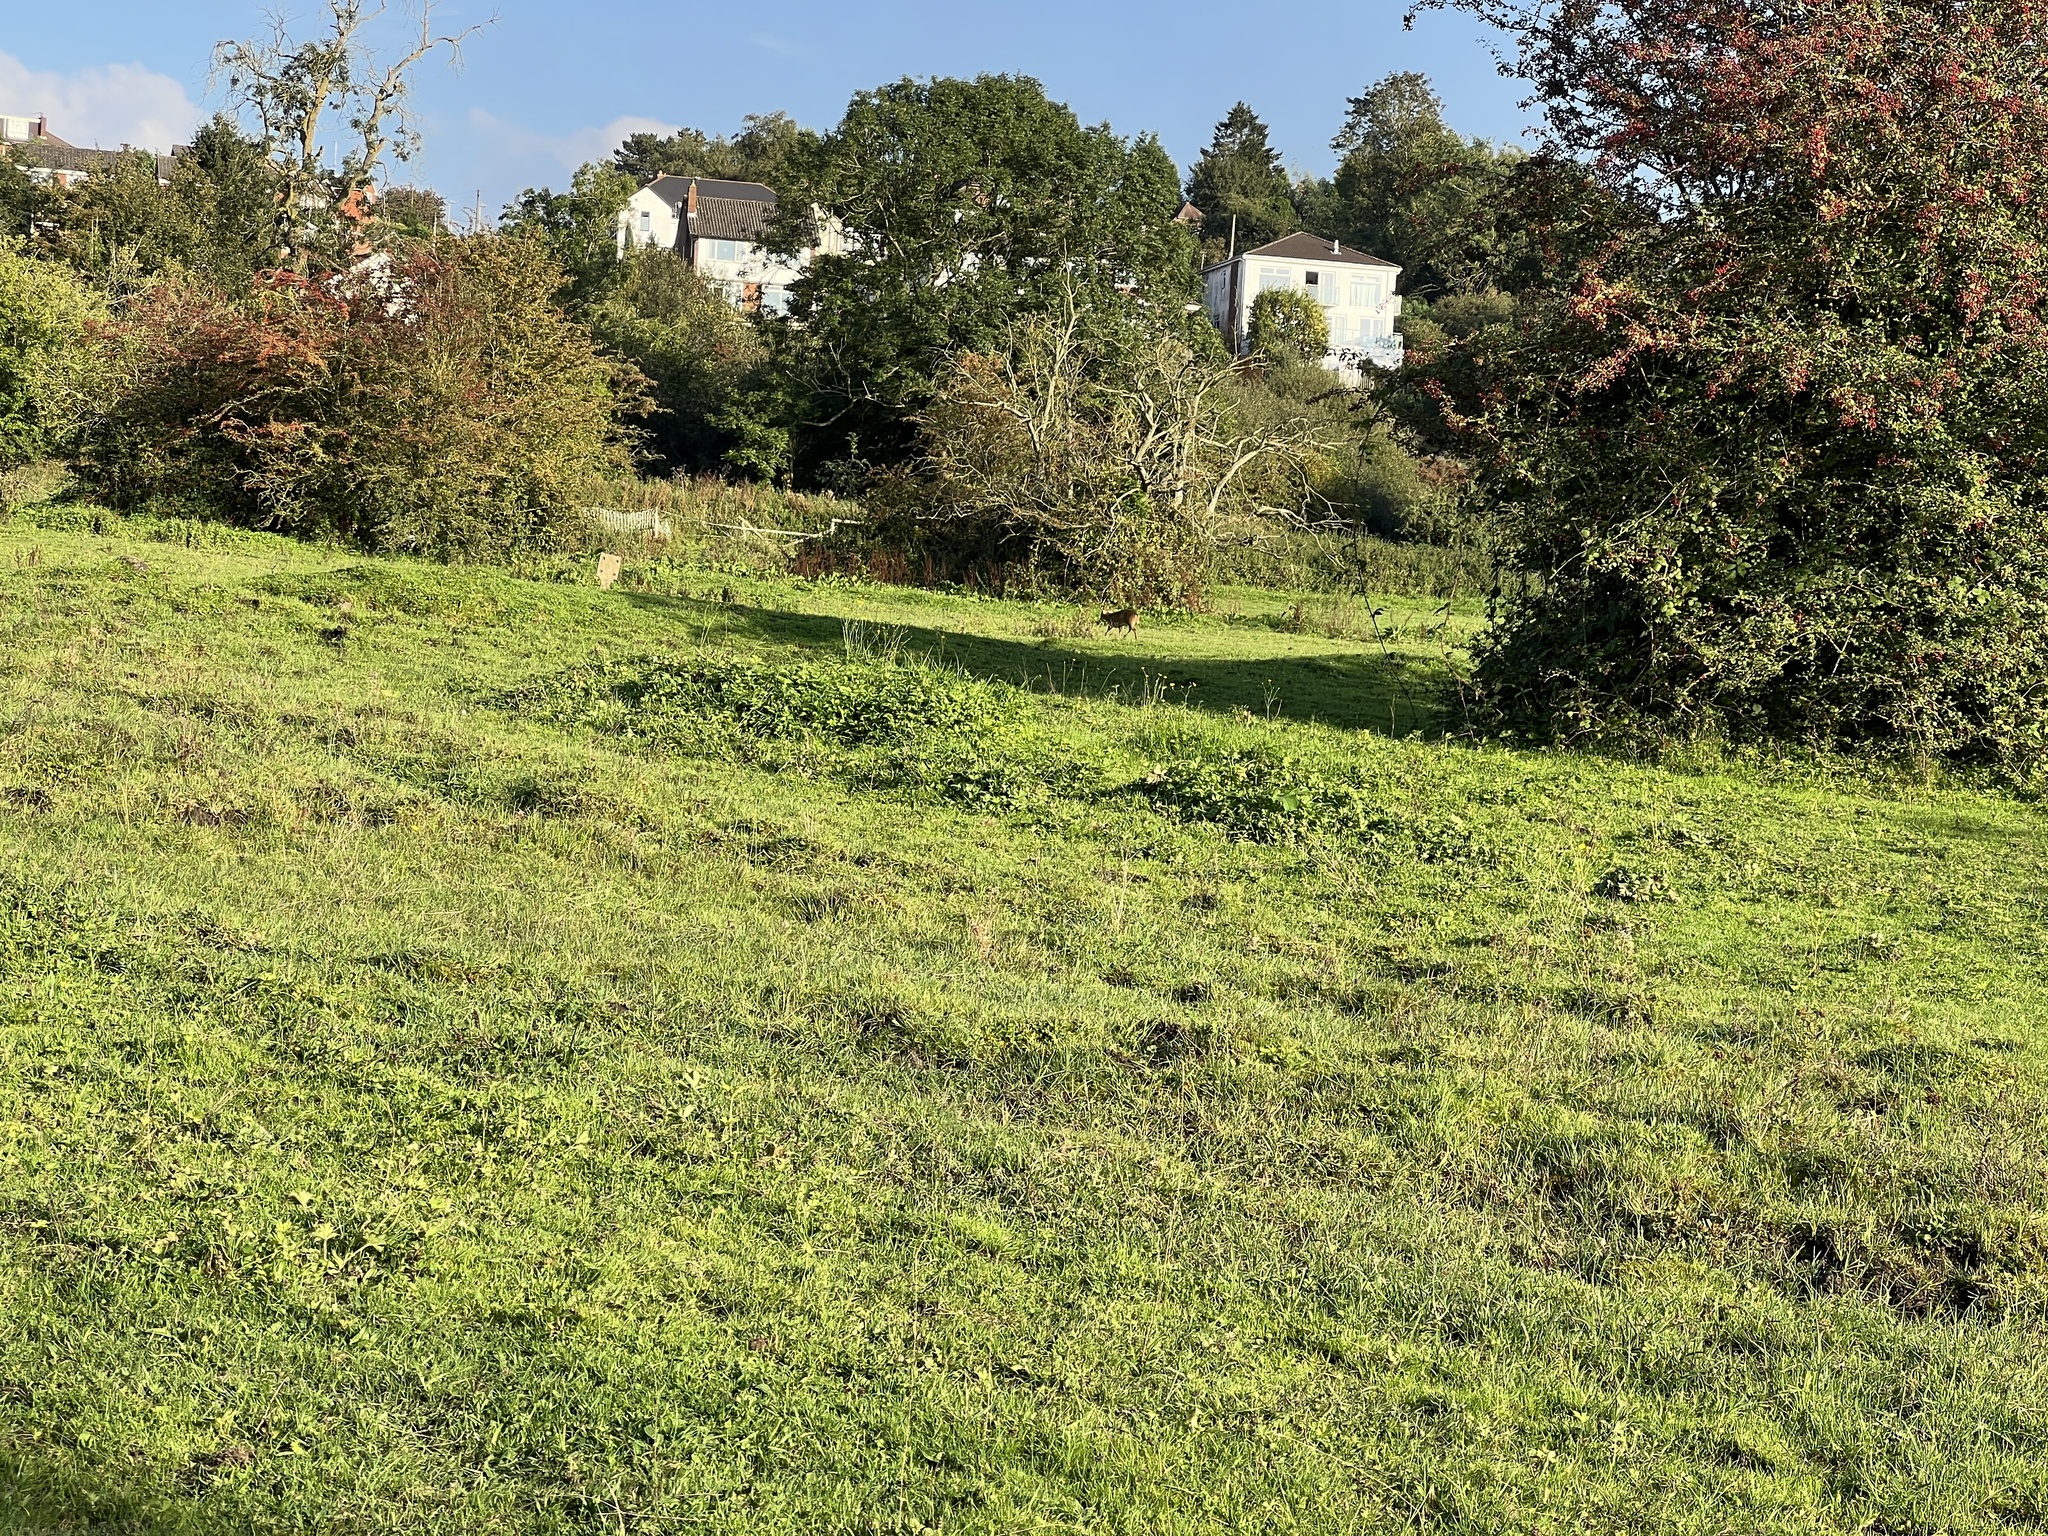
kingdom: Animalia
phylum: Chordata
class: Mammalia
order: Artiodactyla
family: Cervidae
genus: Muntiacus
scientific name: Muntiacus reevesi
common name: Reeves' muntjac
